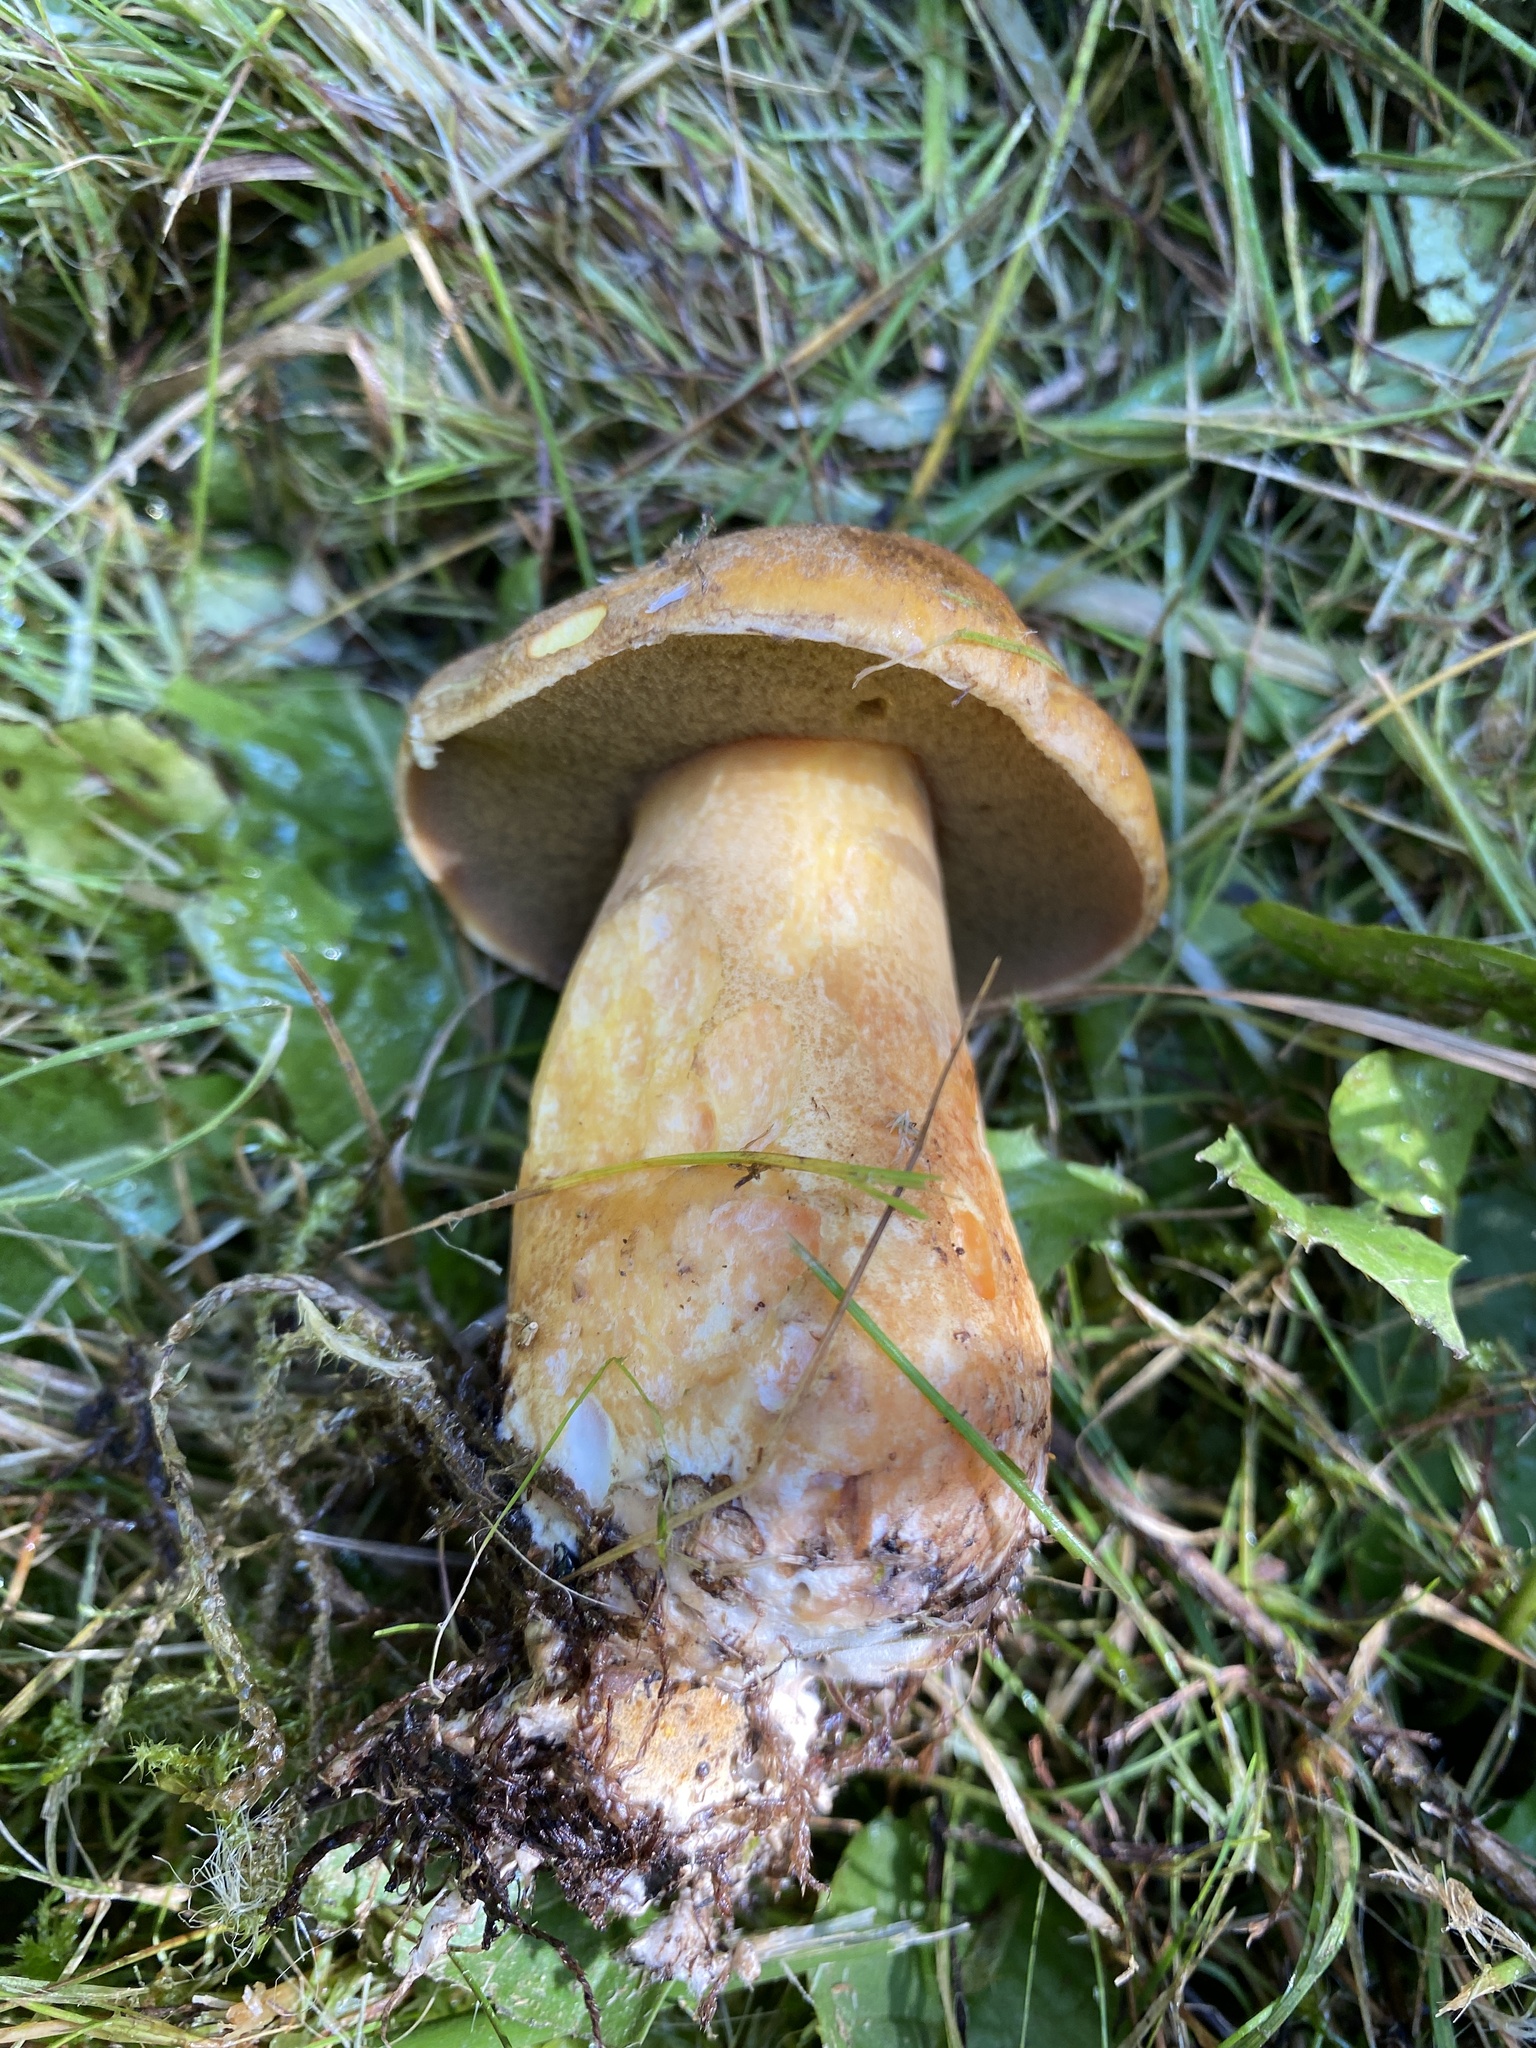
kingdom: Fungi
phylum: Basidiomycota
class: Agaricomycetes
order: Boletales
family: Suillaceae
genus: Suillus
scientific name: Suillus variegatus
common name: Velvet bolete
